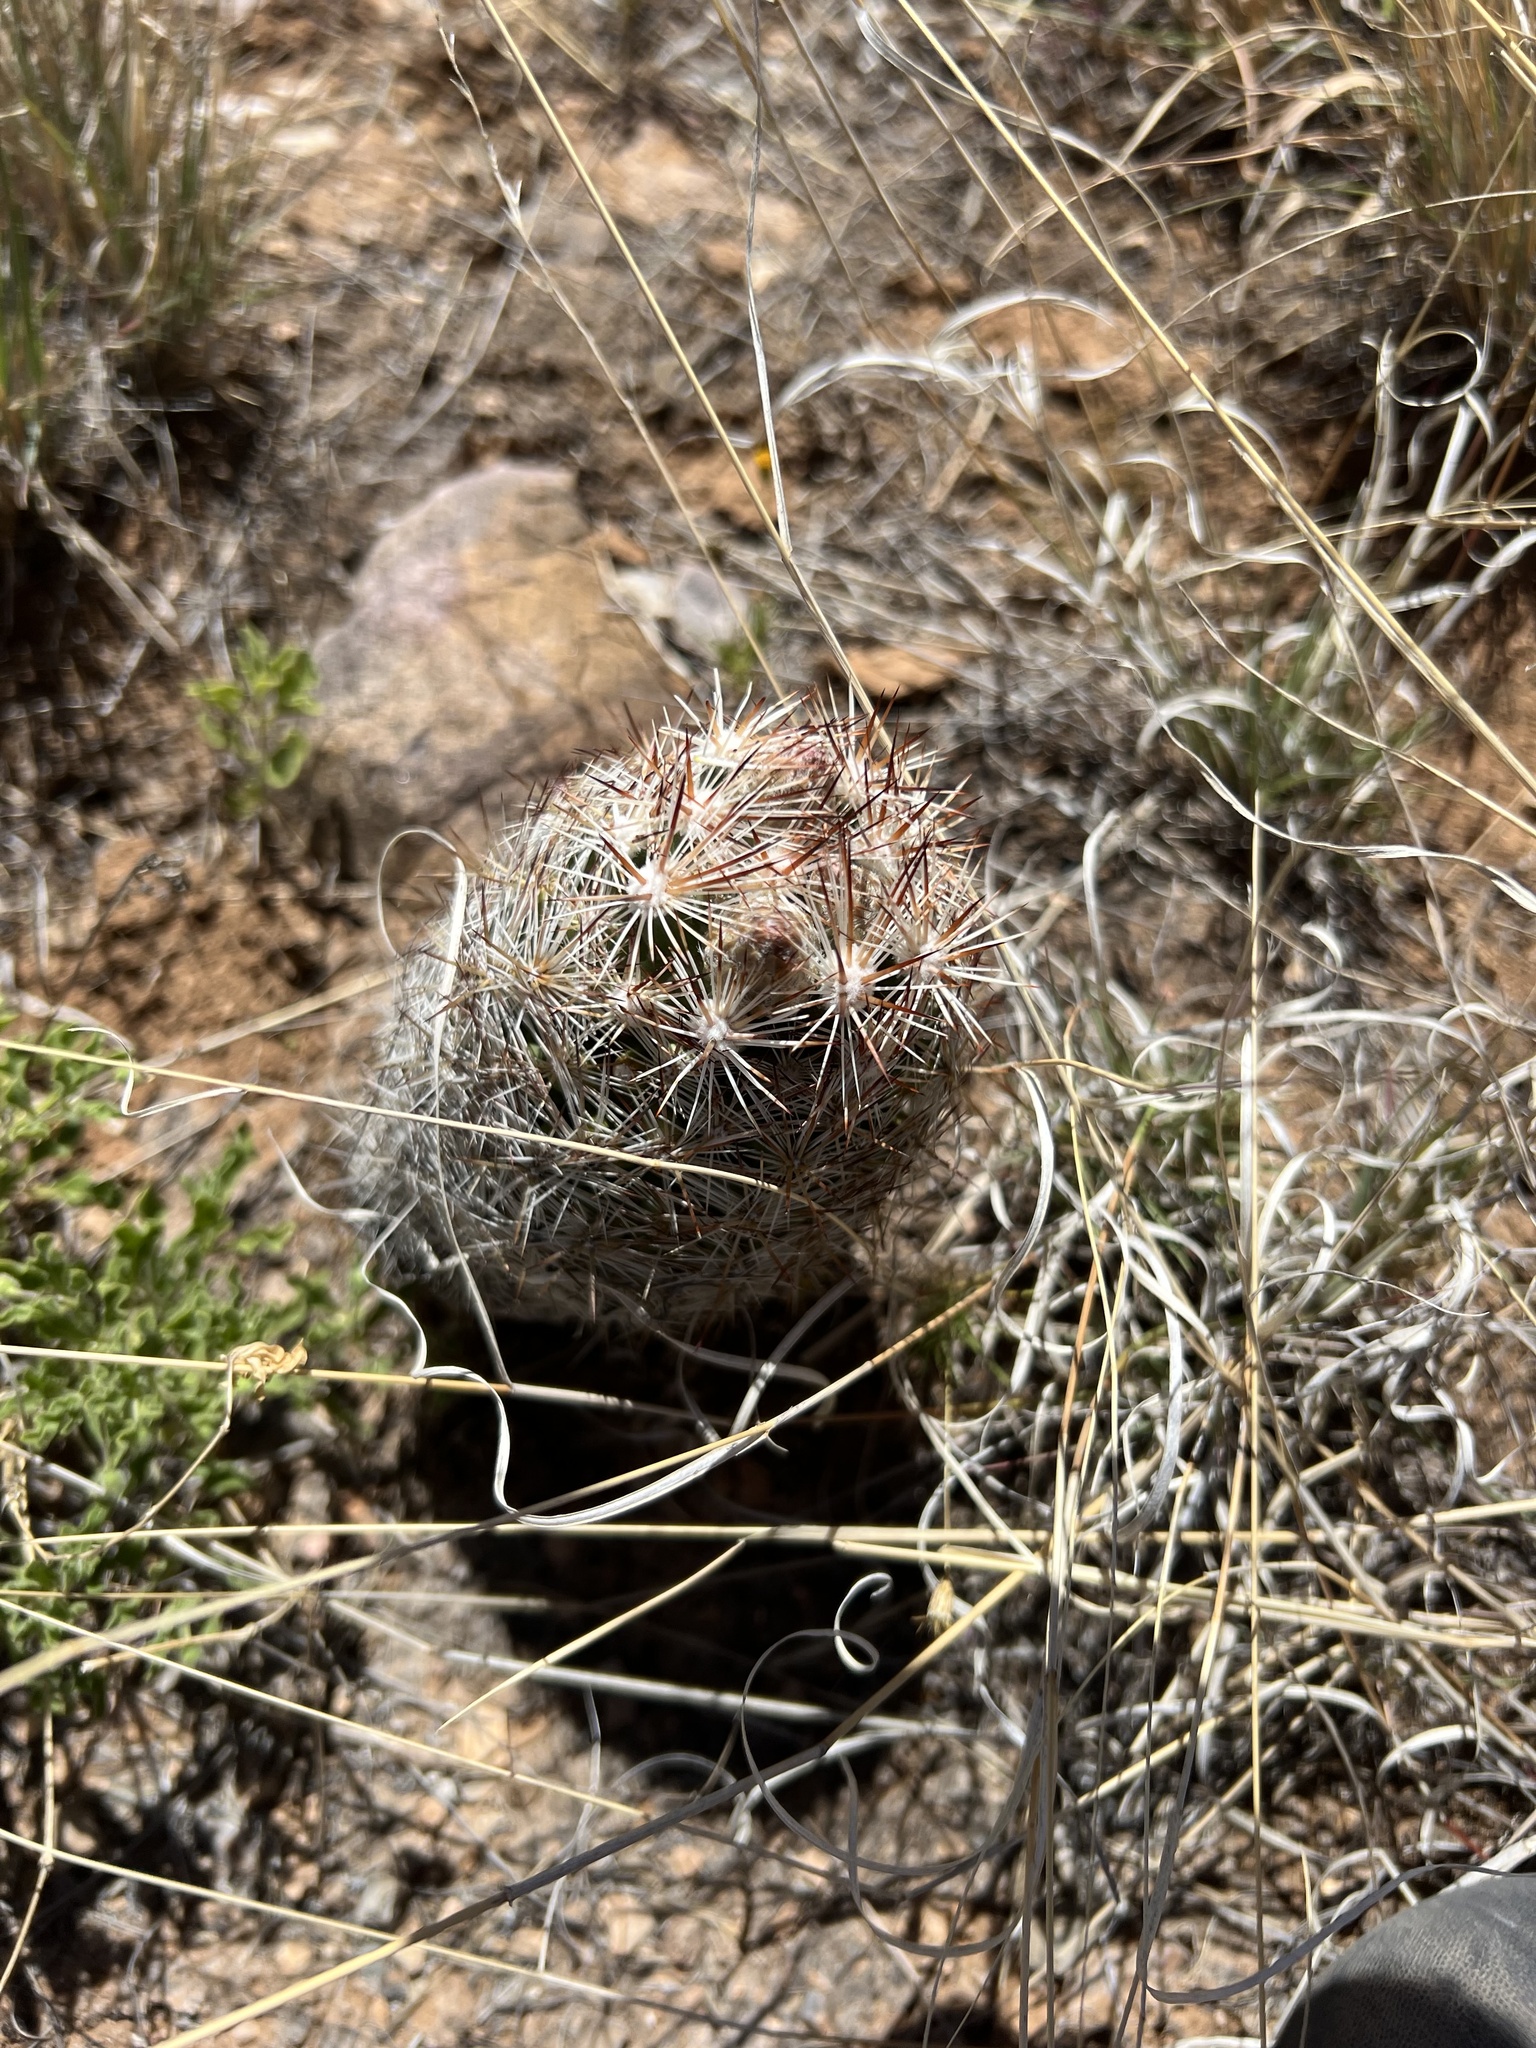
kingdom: Plantae
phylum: Tracheophyta
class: Magnoliopsida
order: Caryophyllales
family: Cactaceae
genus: Pelecyphora
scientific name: Pelecyphora vivipara
